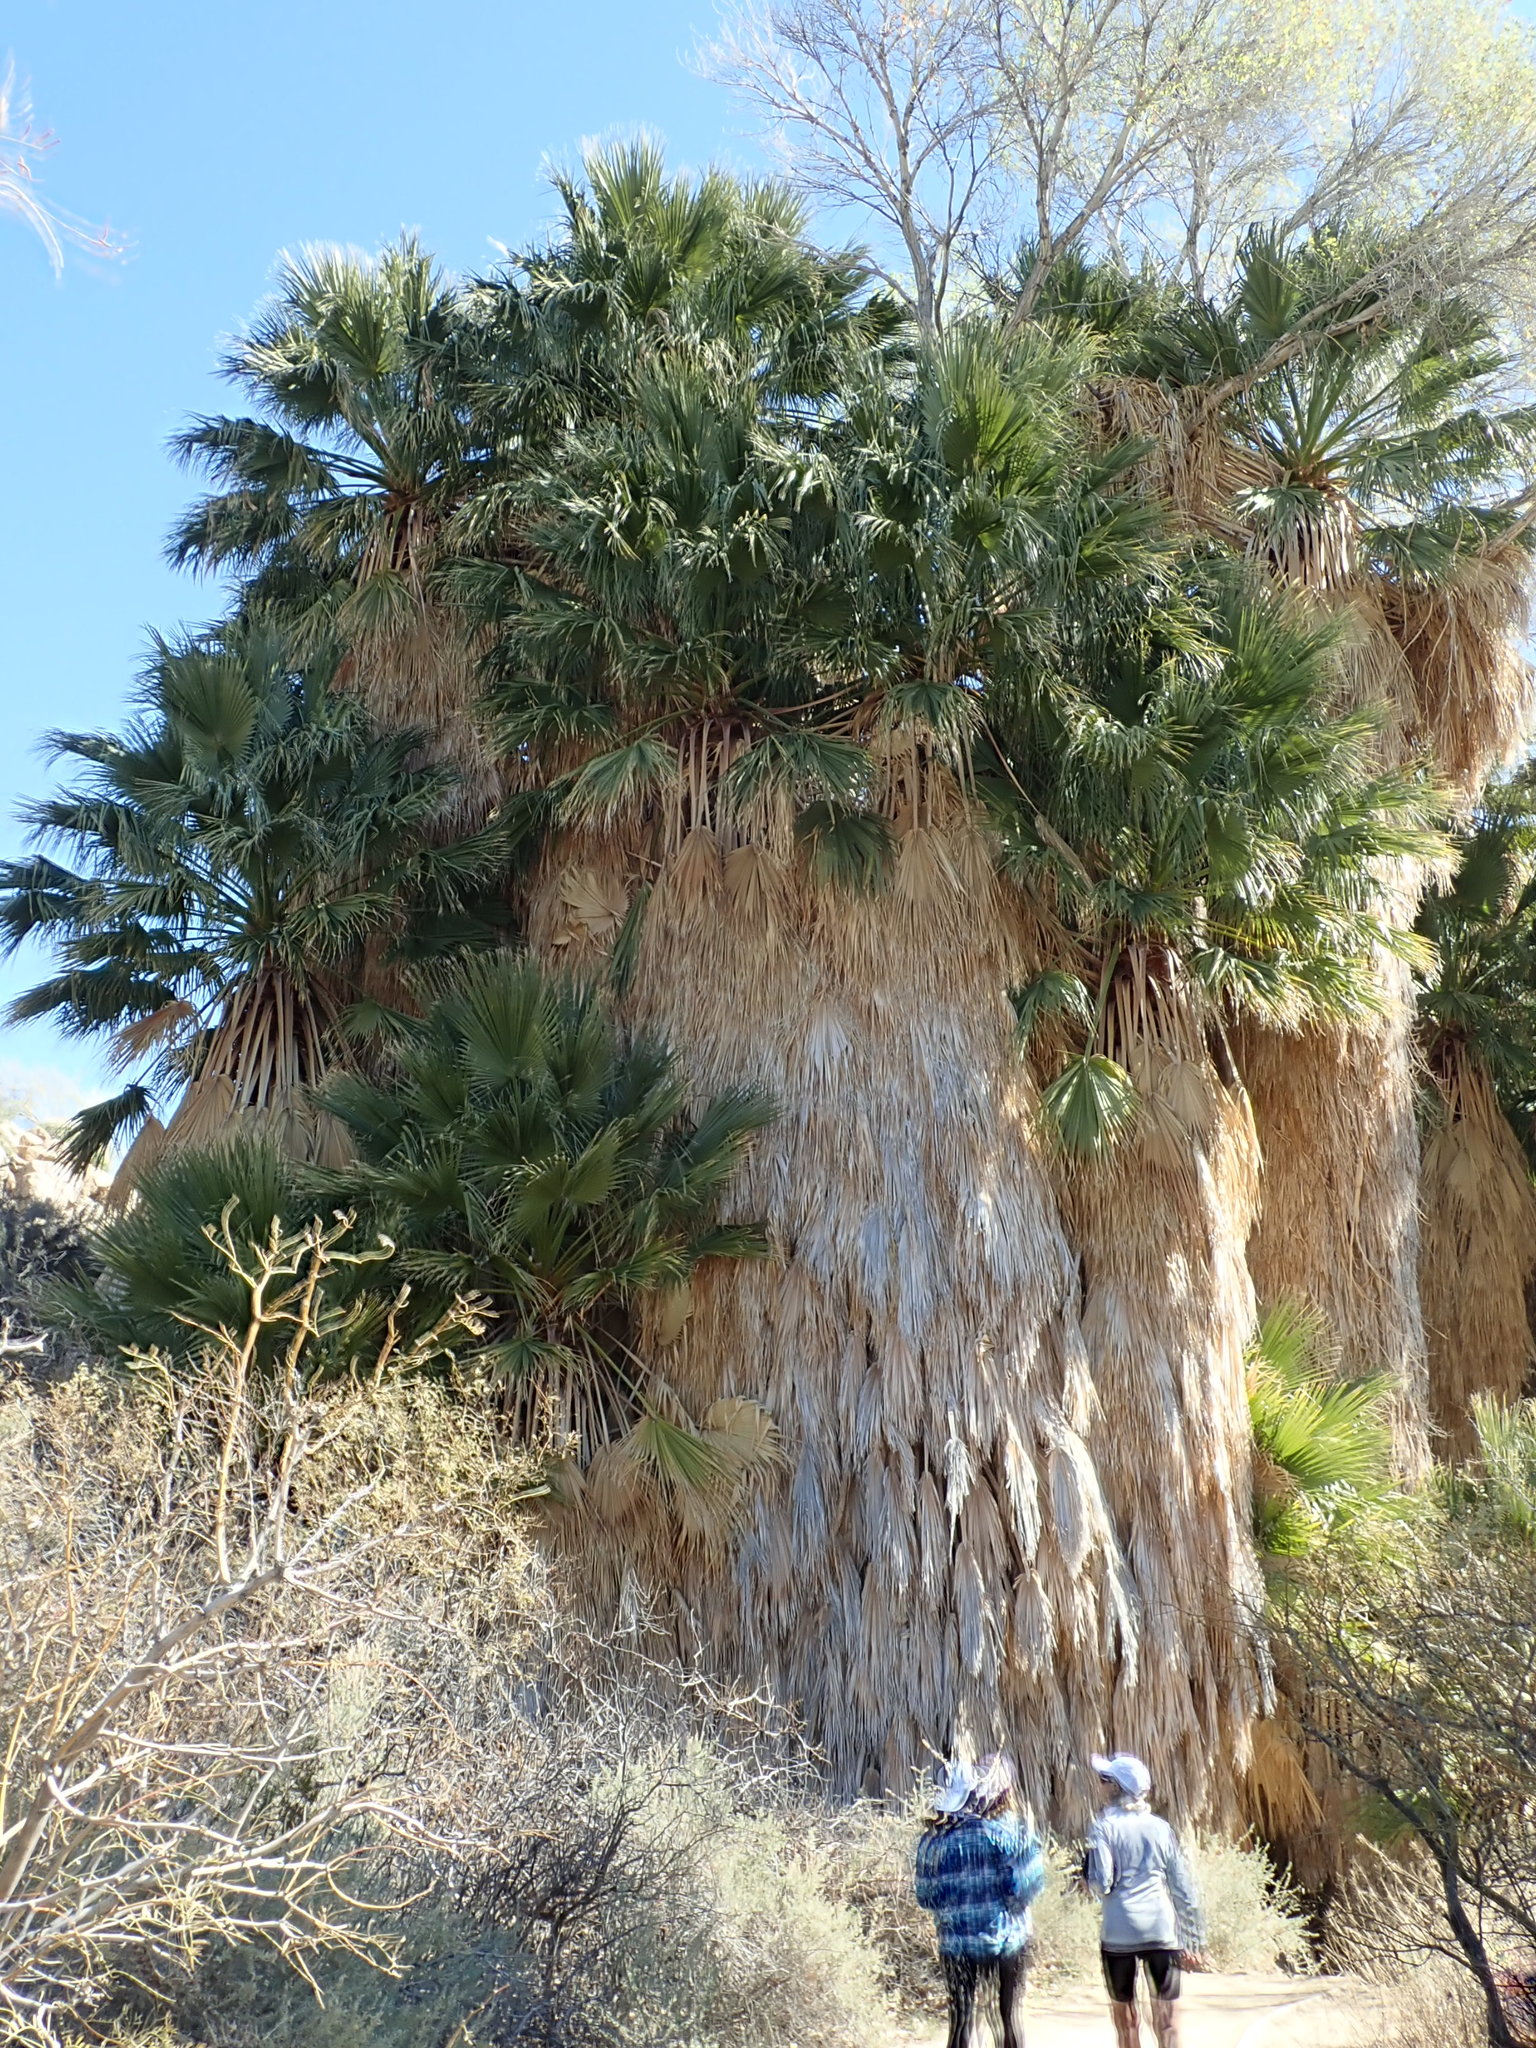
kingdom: Plantae
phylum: Tracheophyta
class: Liliopsida
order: Arecales
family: Arecaceae
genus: Washingtonia
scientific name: Washingtonia filifera
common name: California fan palm
